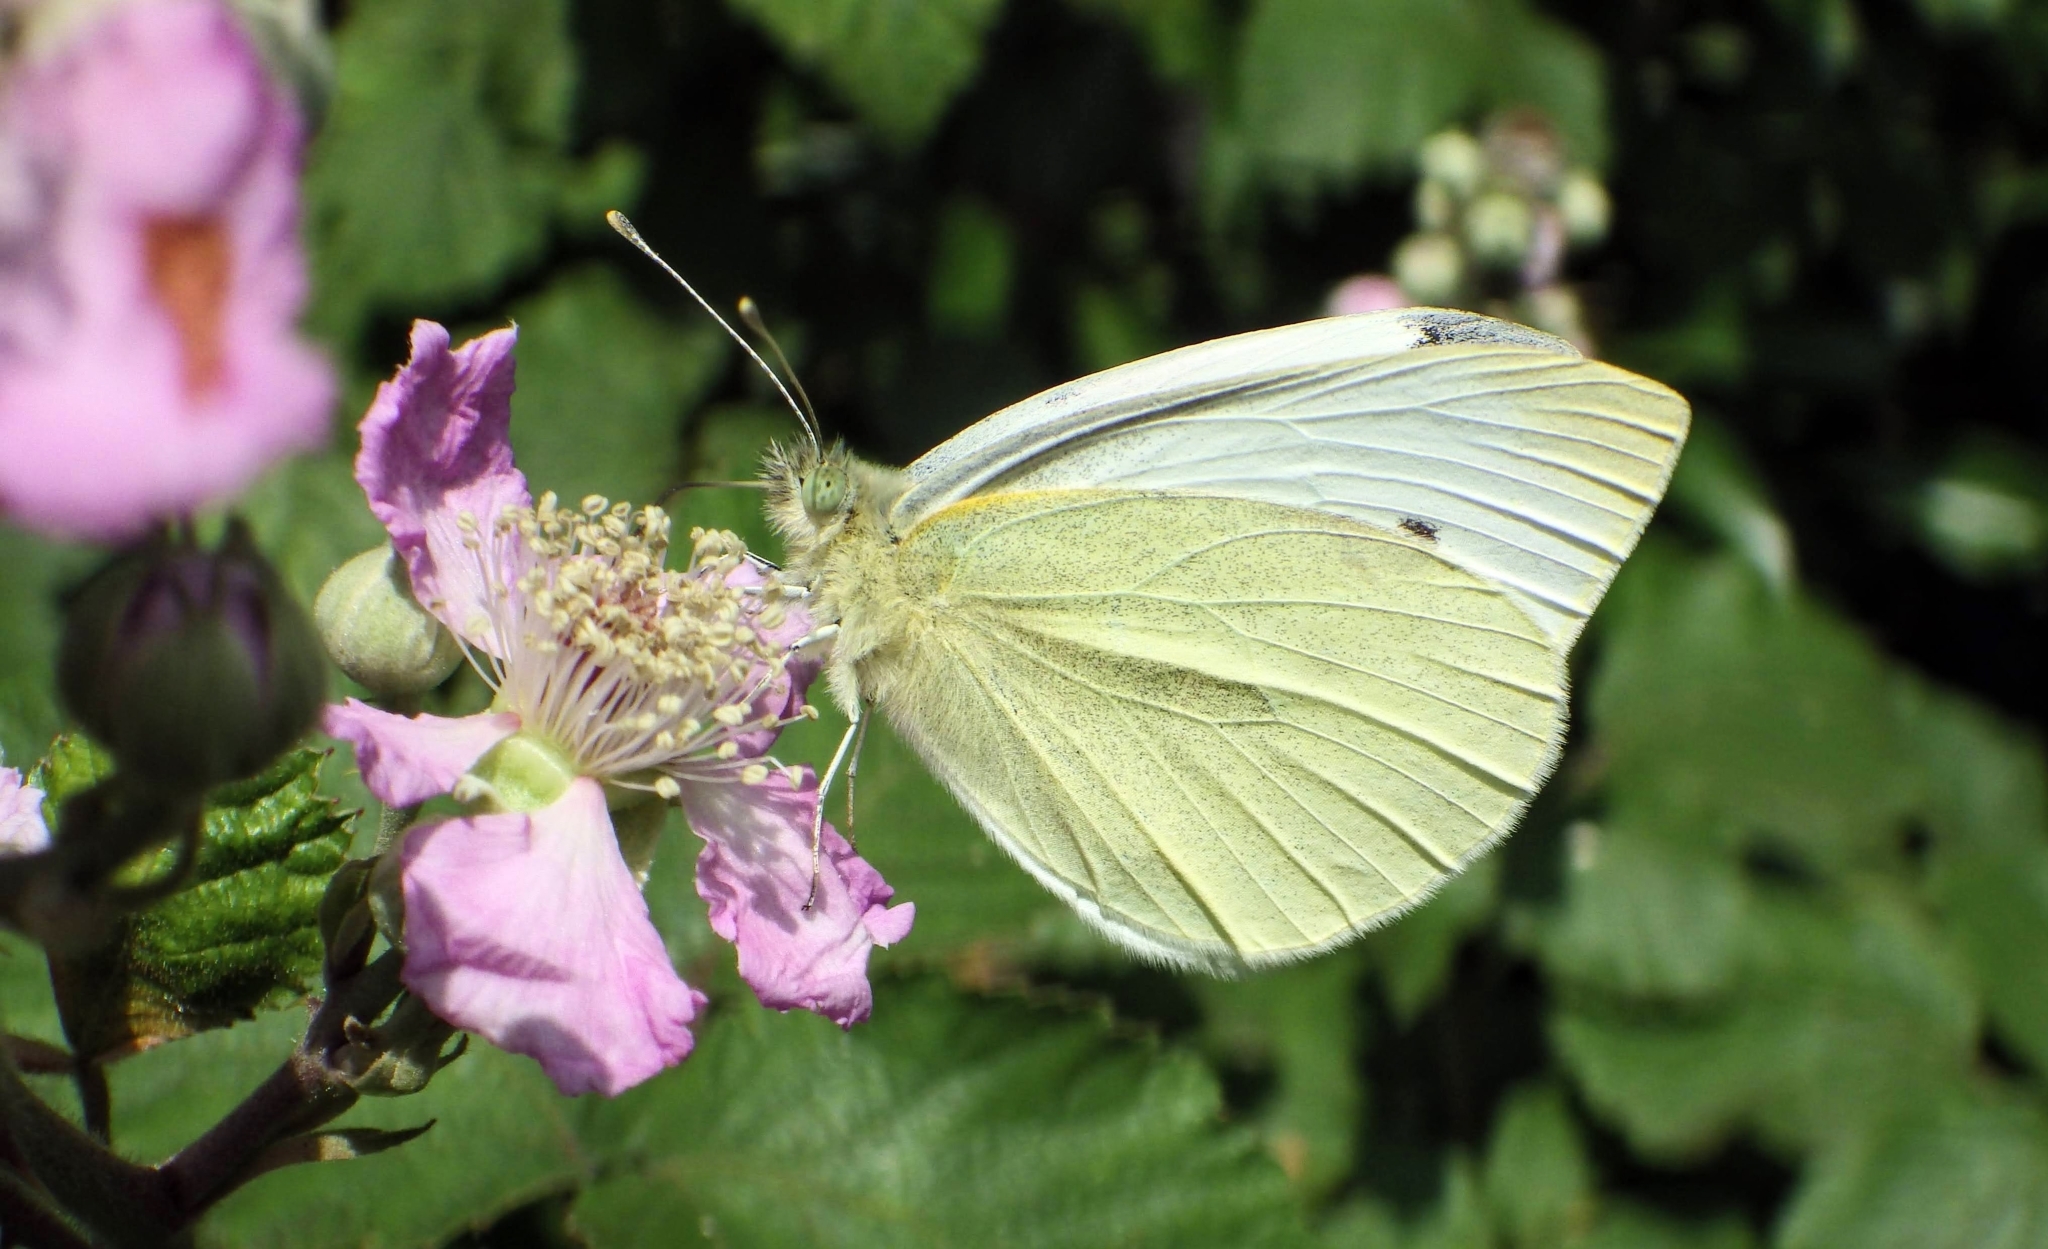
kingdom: Animalia
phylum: Arthropoda
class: Insecta
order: Lepidoptera
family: Pieridae
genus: Pieris
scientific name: Pieris napi
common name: Green-veined white
